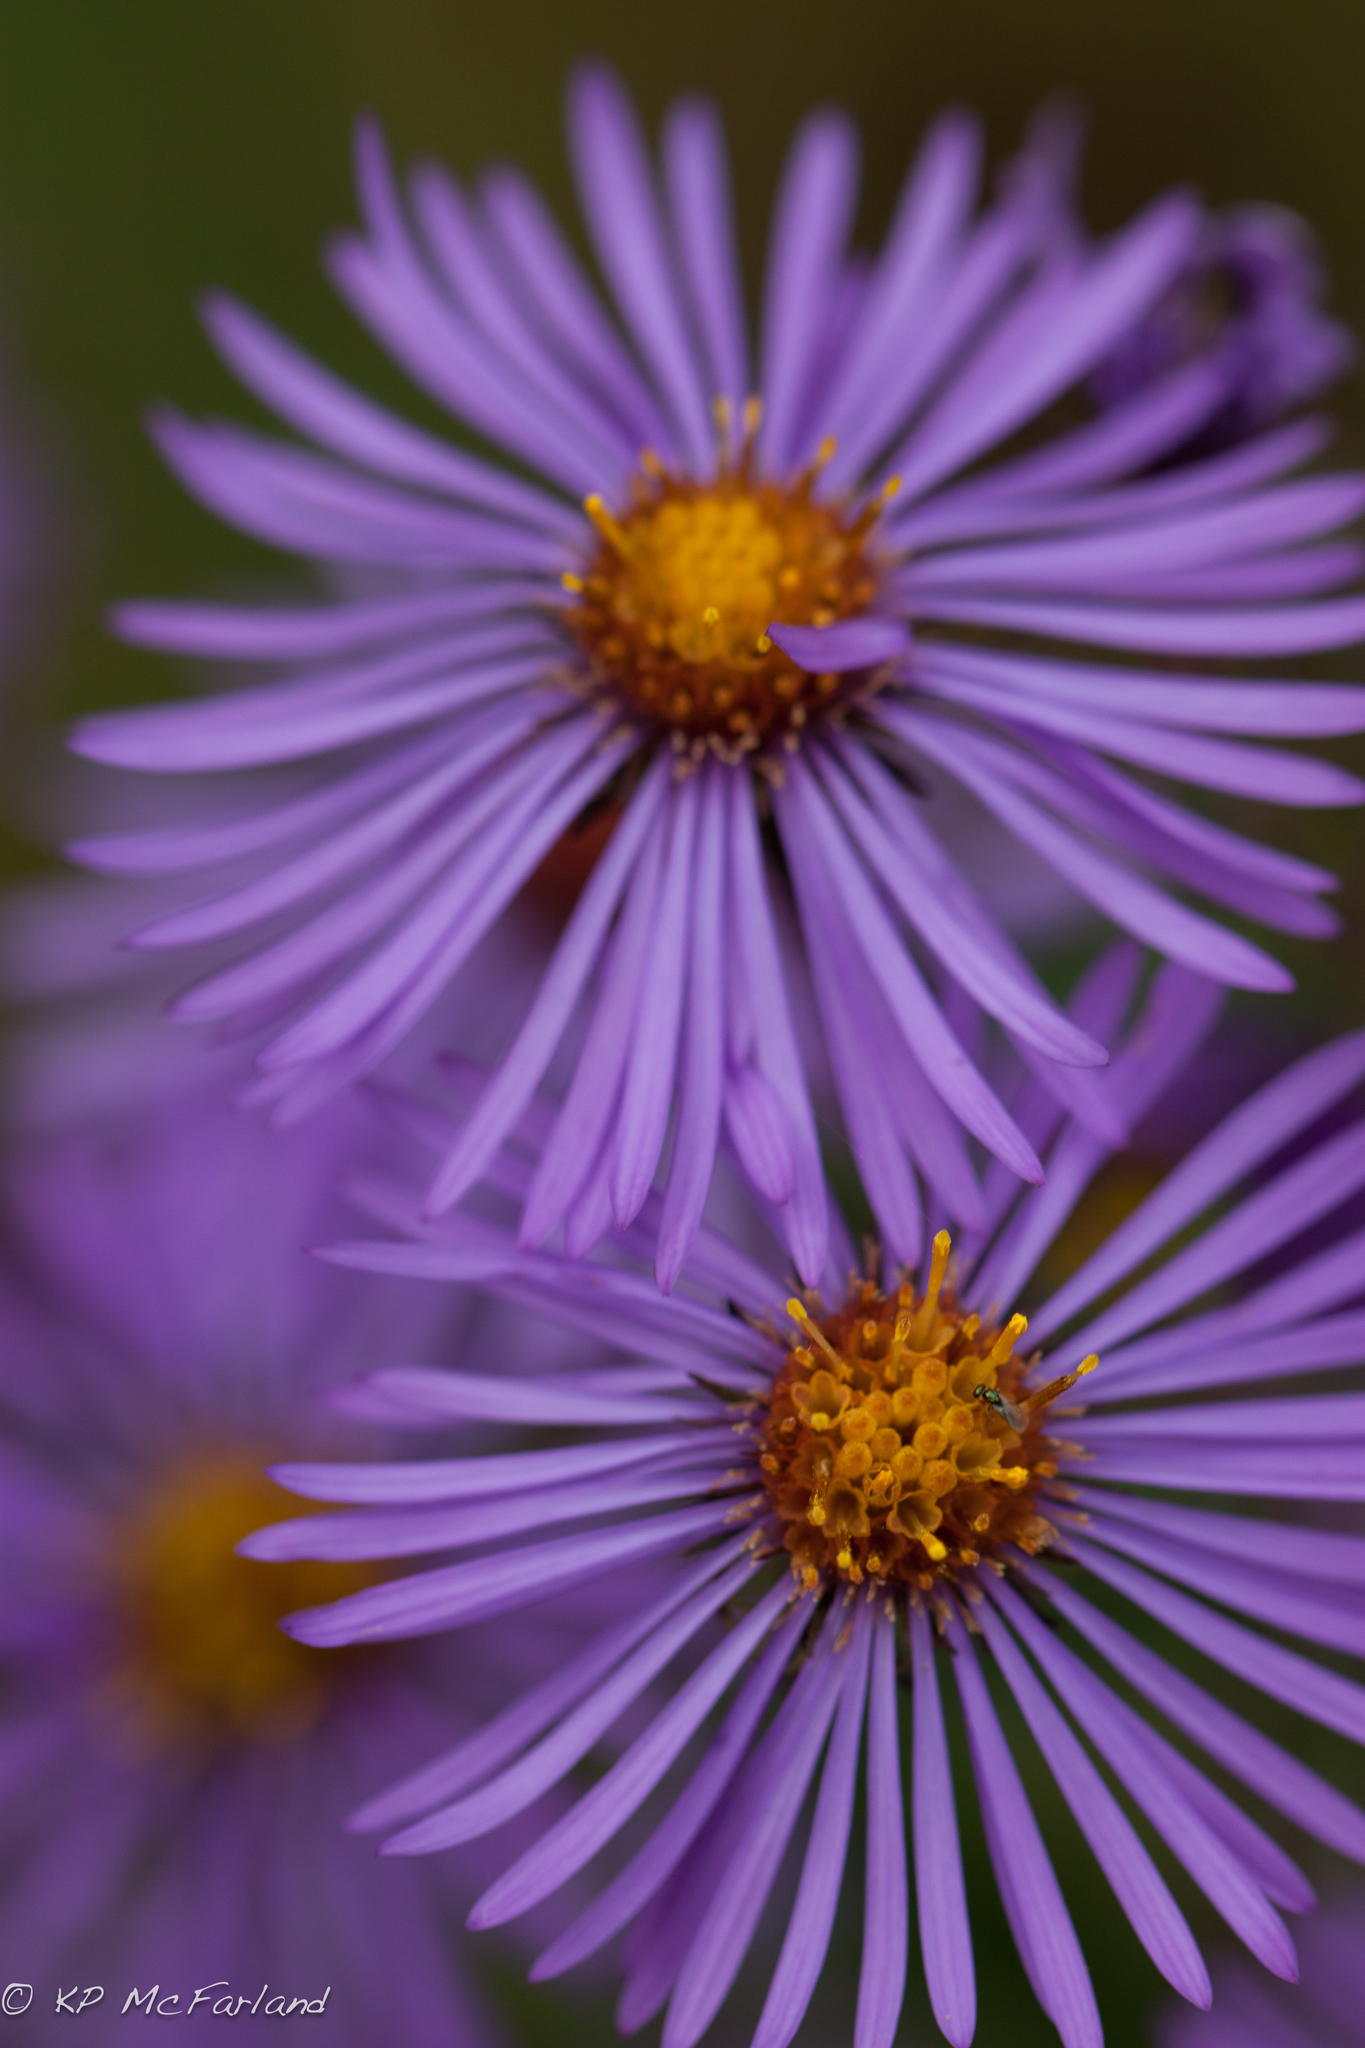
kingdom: Plantae
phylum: Tracheophyta
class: Magnoliopsida
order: Asterales
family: Asteraceae
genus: Symphyotrichum
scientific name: Symphyotrichum novae-angliae
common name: Michaelmas daisy
